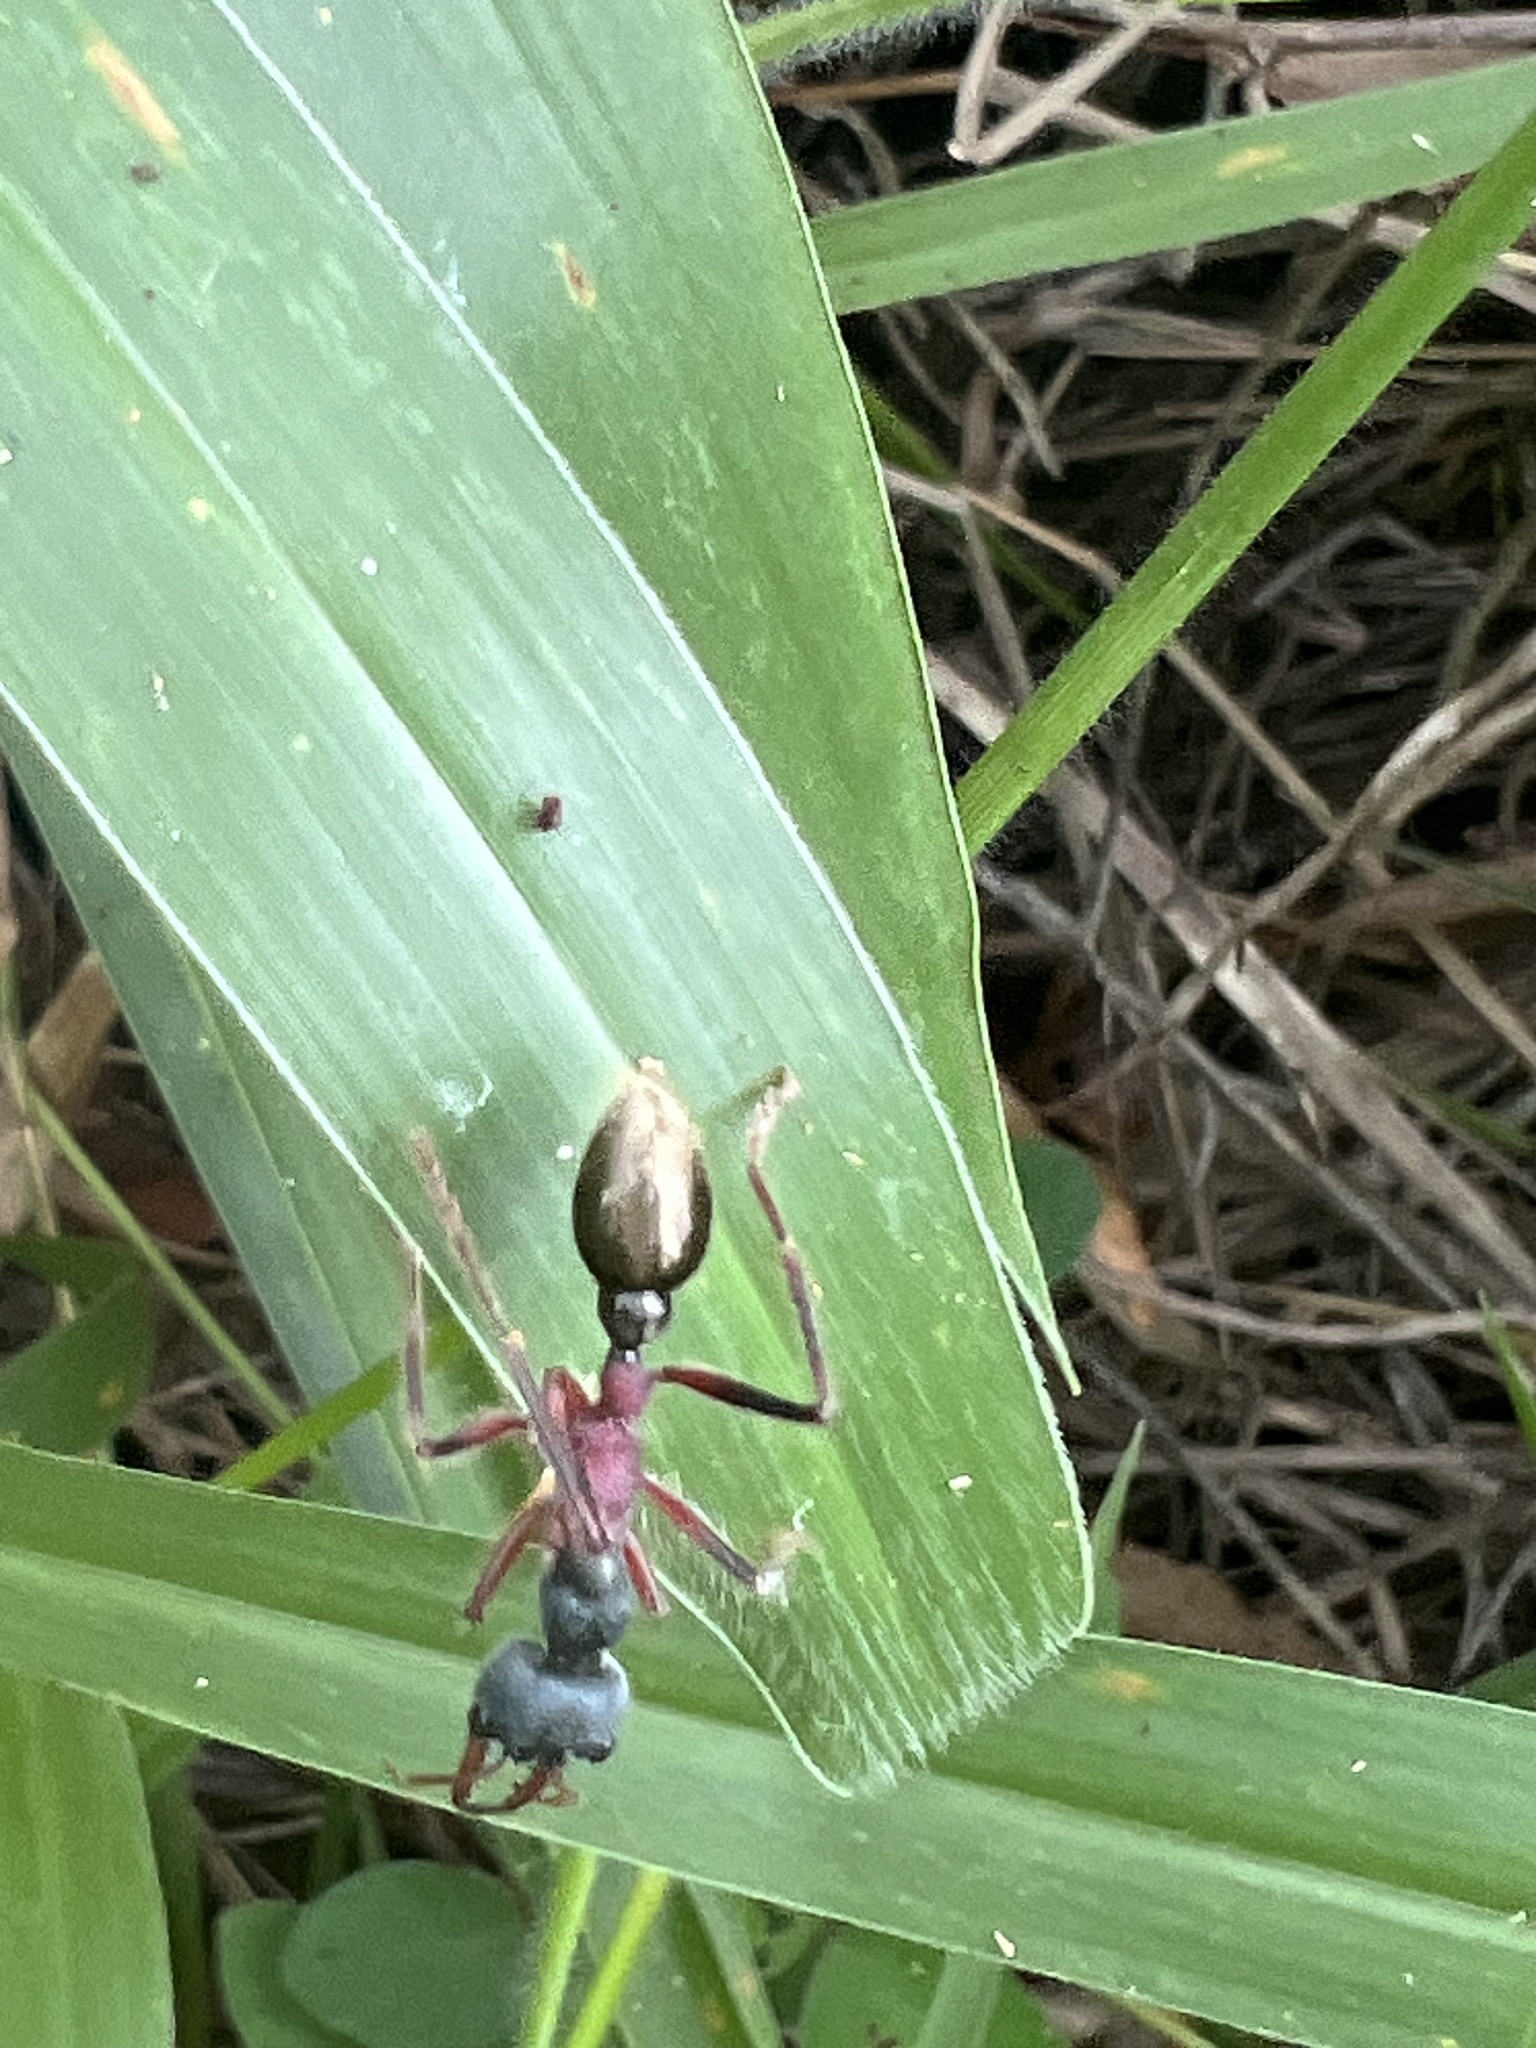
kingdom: Animalia
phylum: Arthropoda
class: Insecta
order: Hymenoptera
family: Formicidae
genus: Myrmecia
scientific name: Myrmecia auriventris
